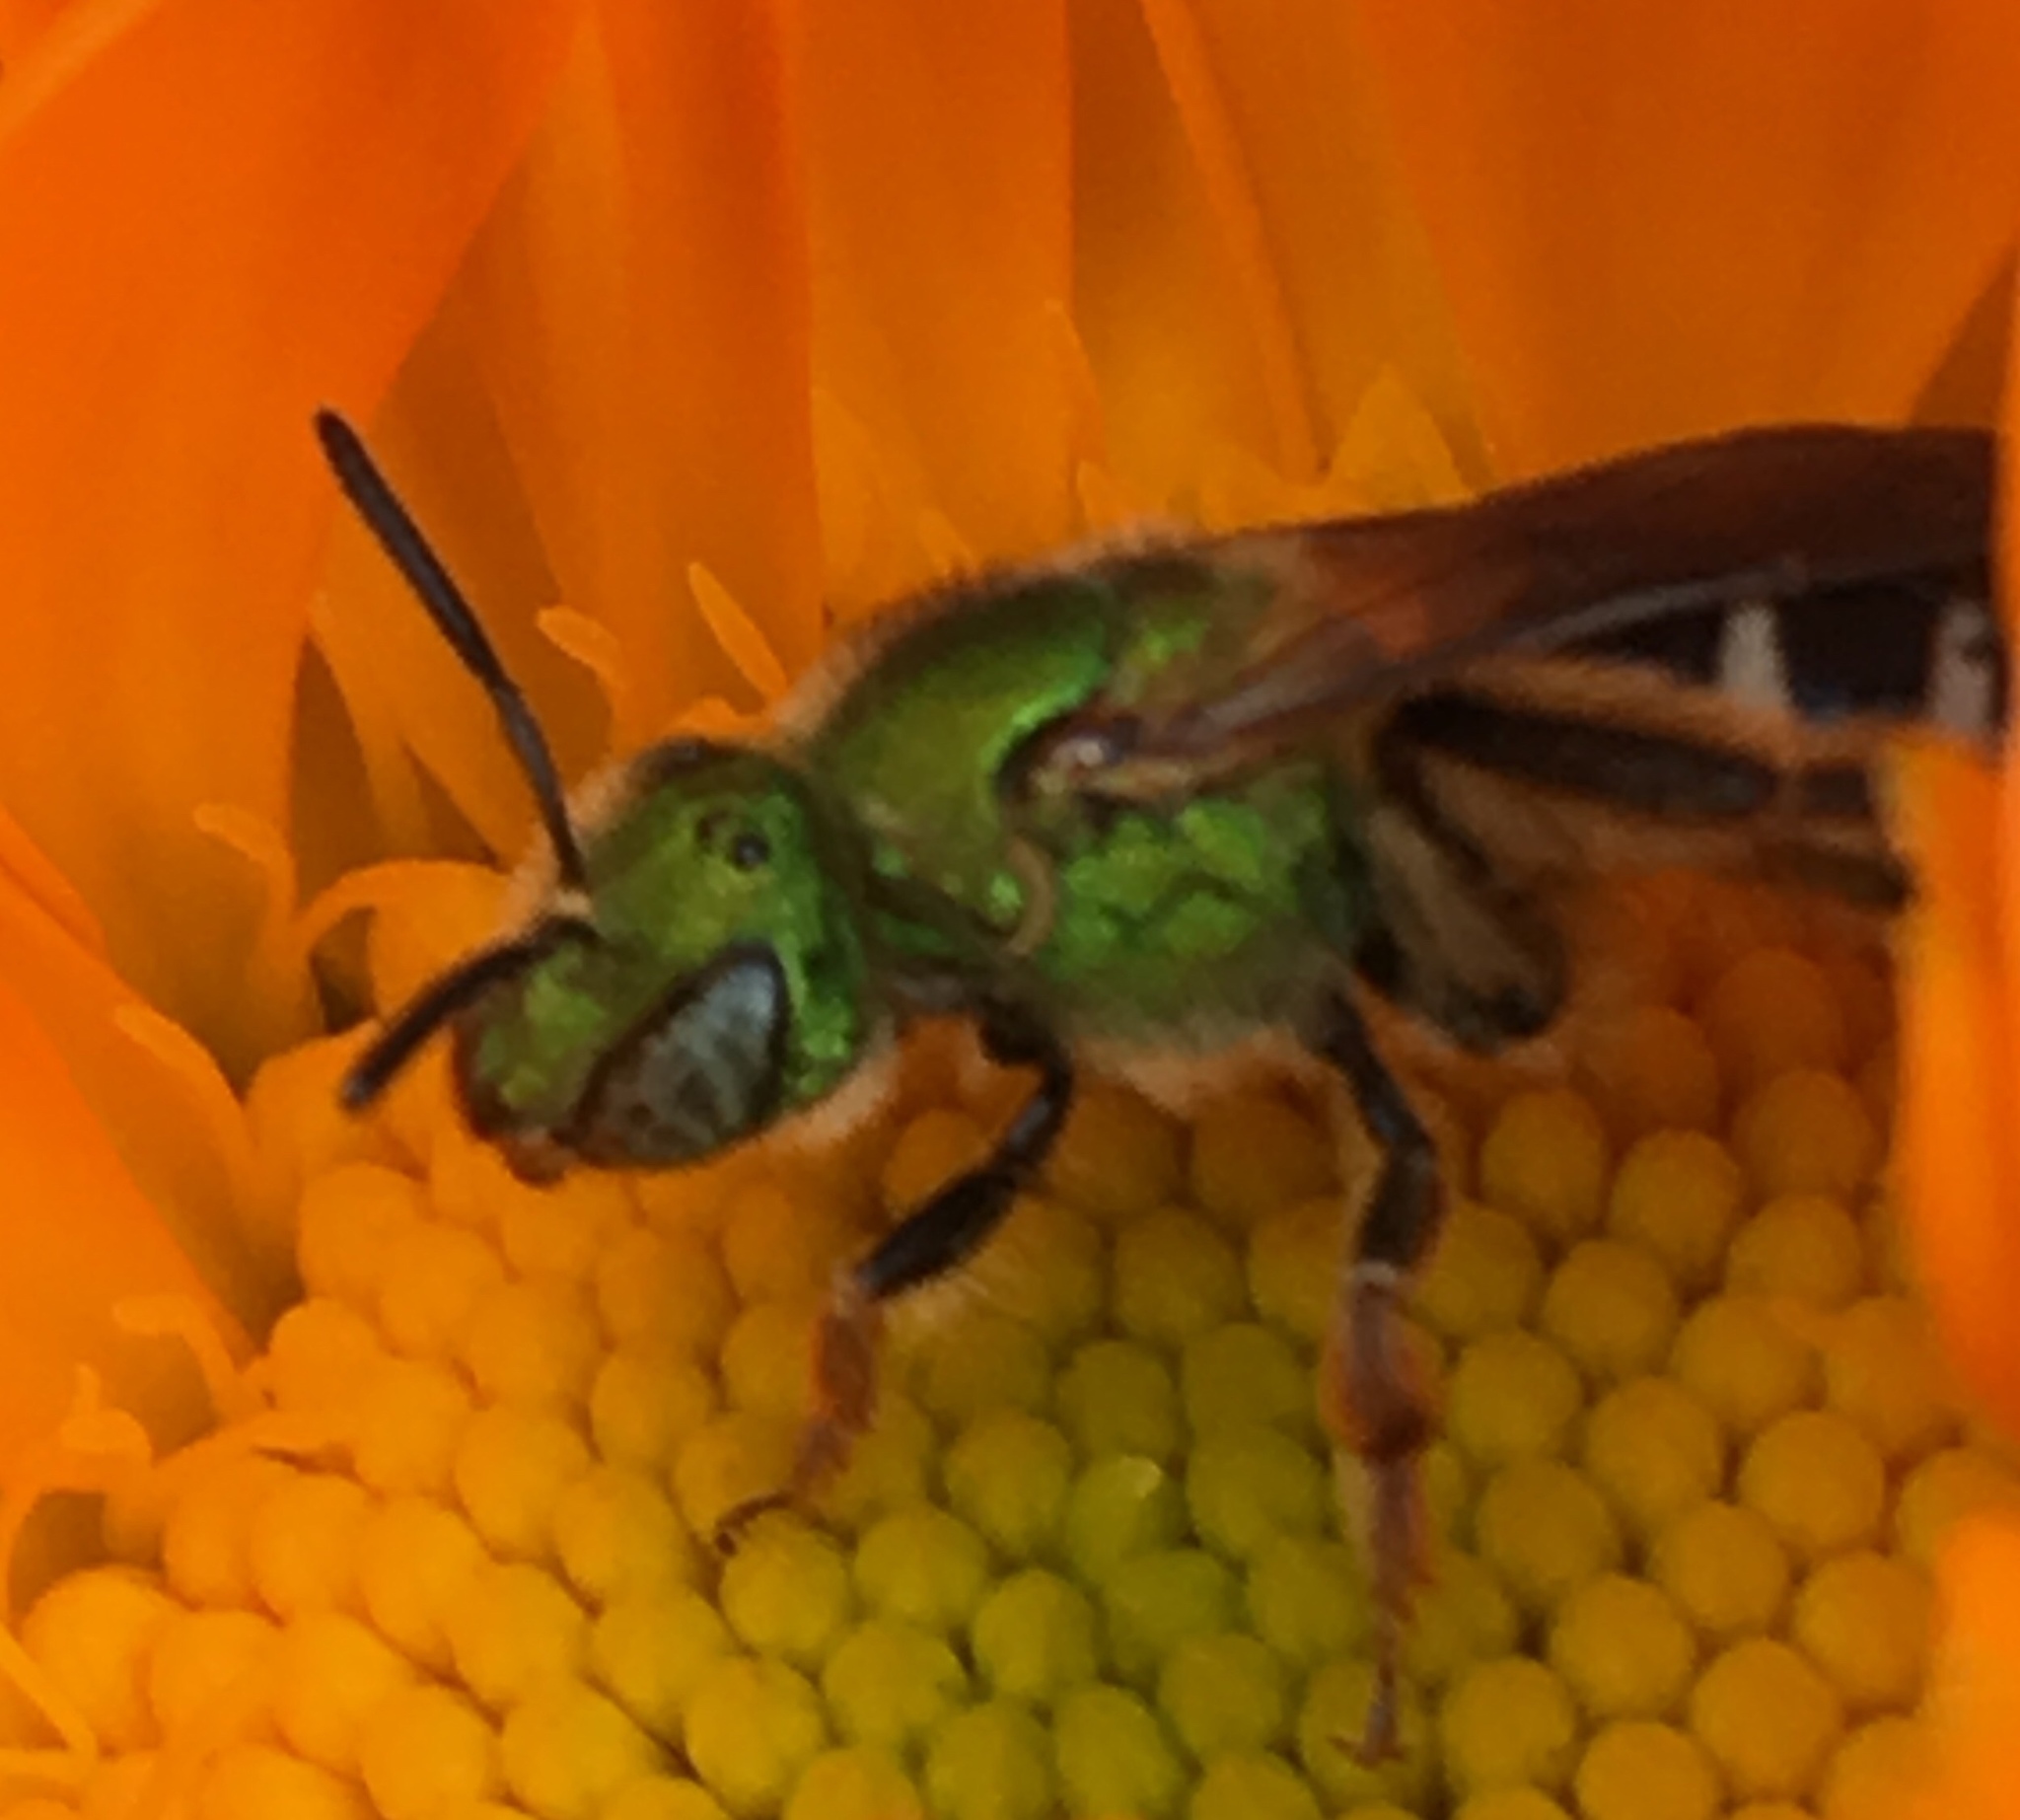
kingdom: Animalia
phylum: Arthropoda
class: Insecta
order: Hymenoptera
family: Halictidae
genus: Agapostemon
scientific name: Agapostemon virescens
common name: Bicolored striped sweat bee
